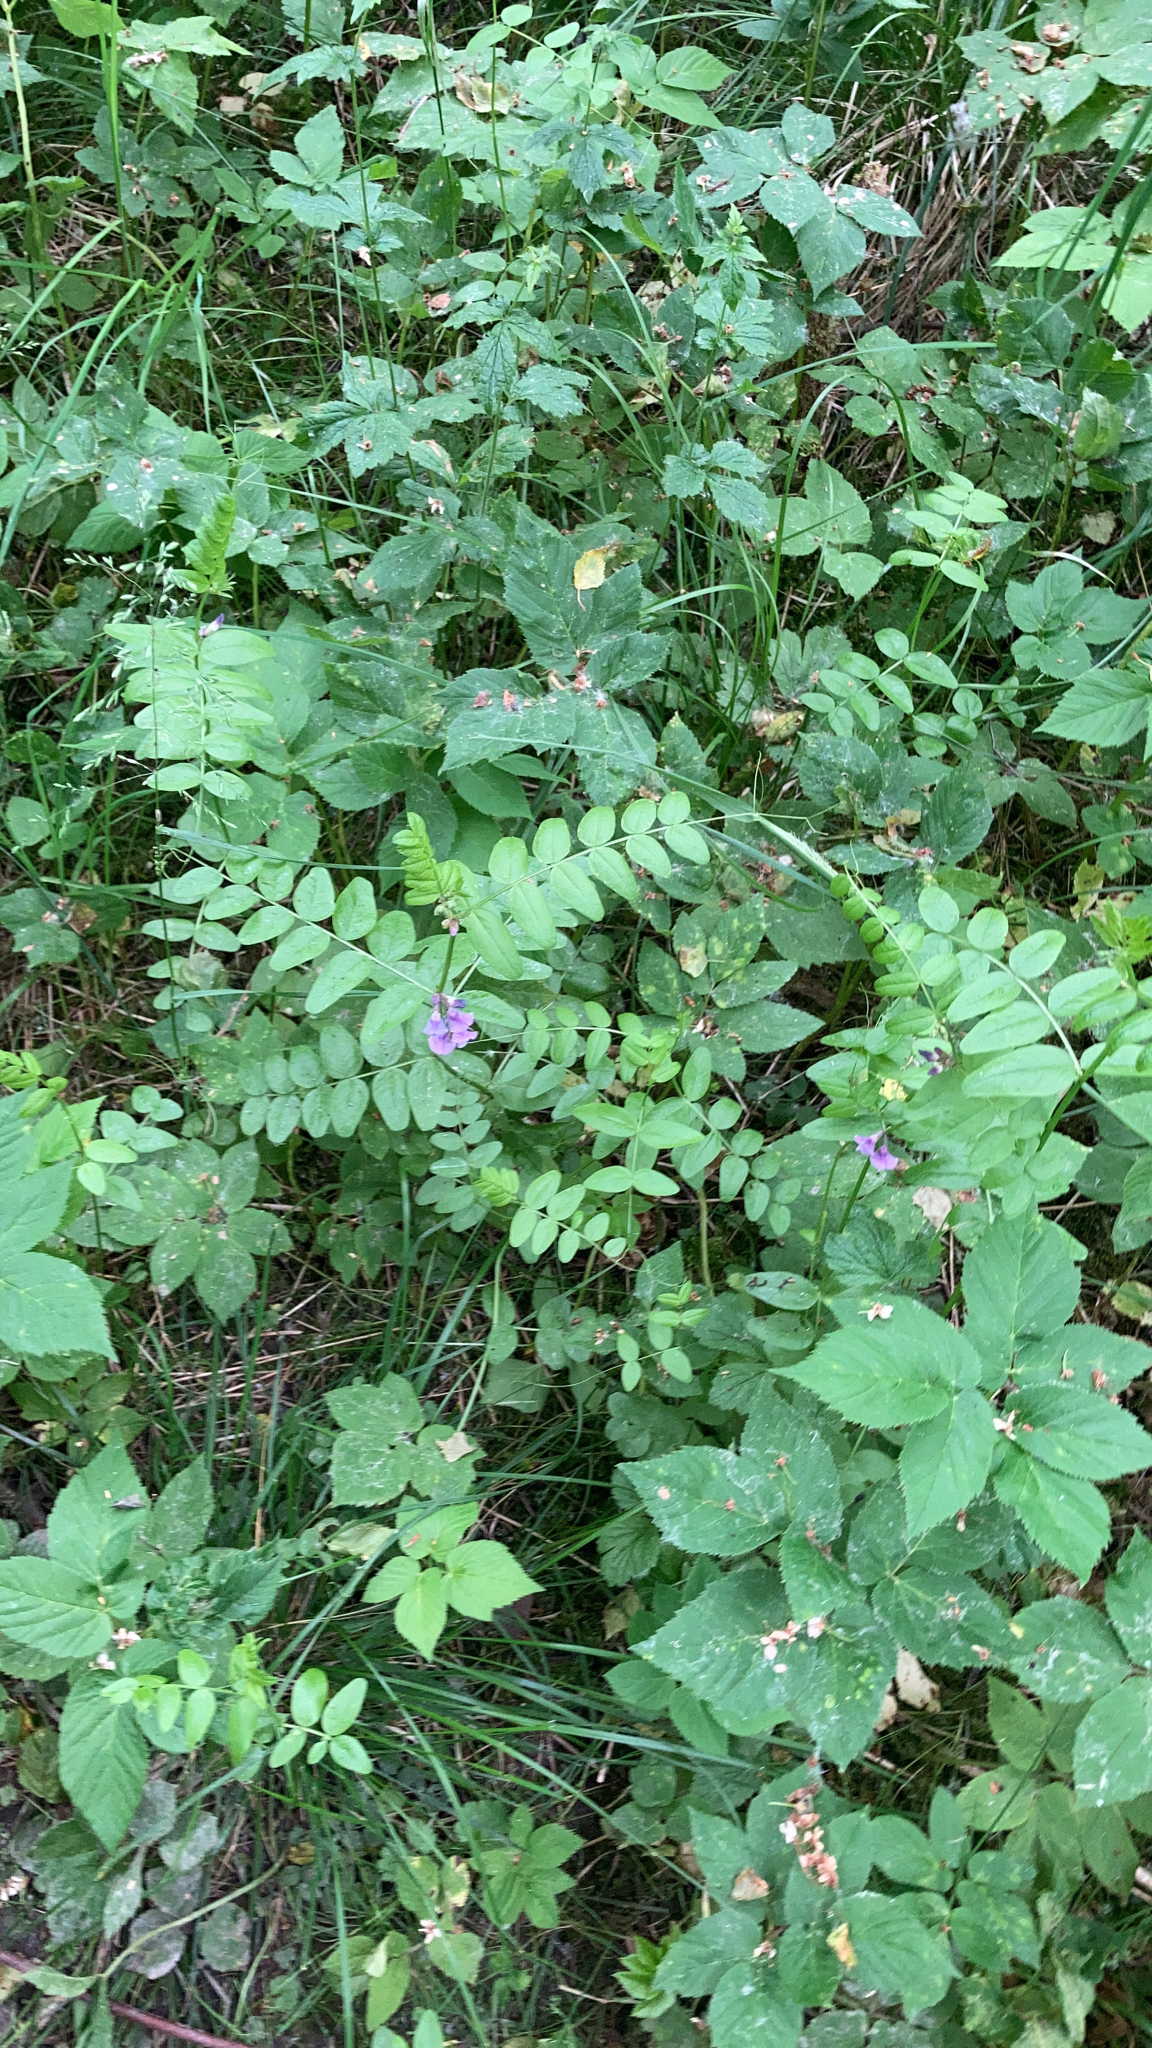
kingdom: Plantae
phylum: Tracheophyta
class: Magnoliopsida
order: Fabales
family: Fabaceae
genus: Vicia
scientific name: Vicia sepium
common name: Bush vetch
